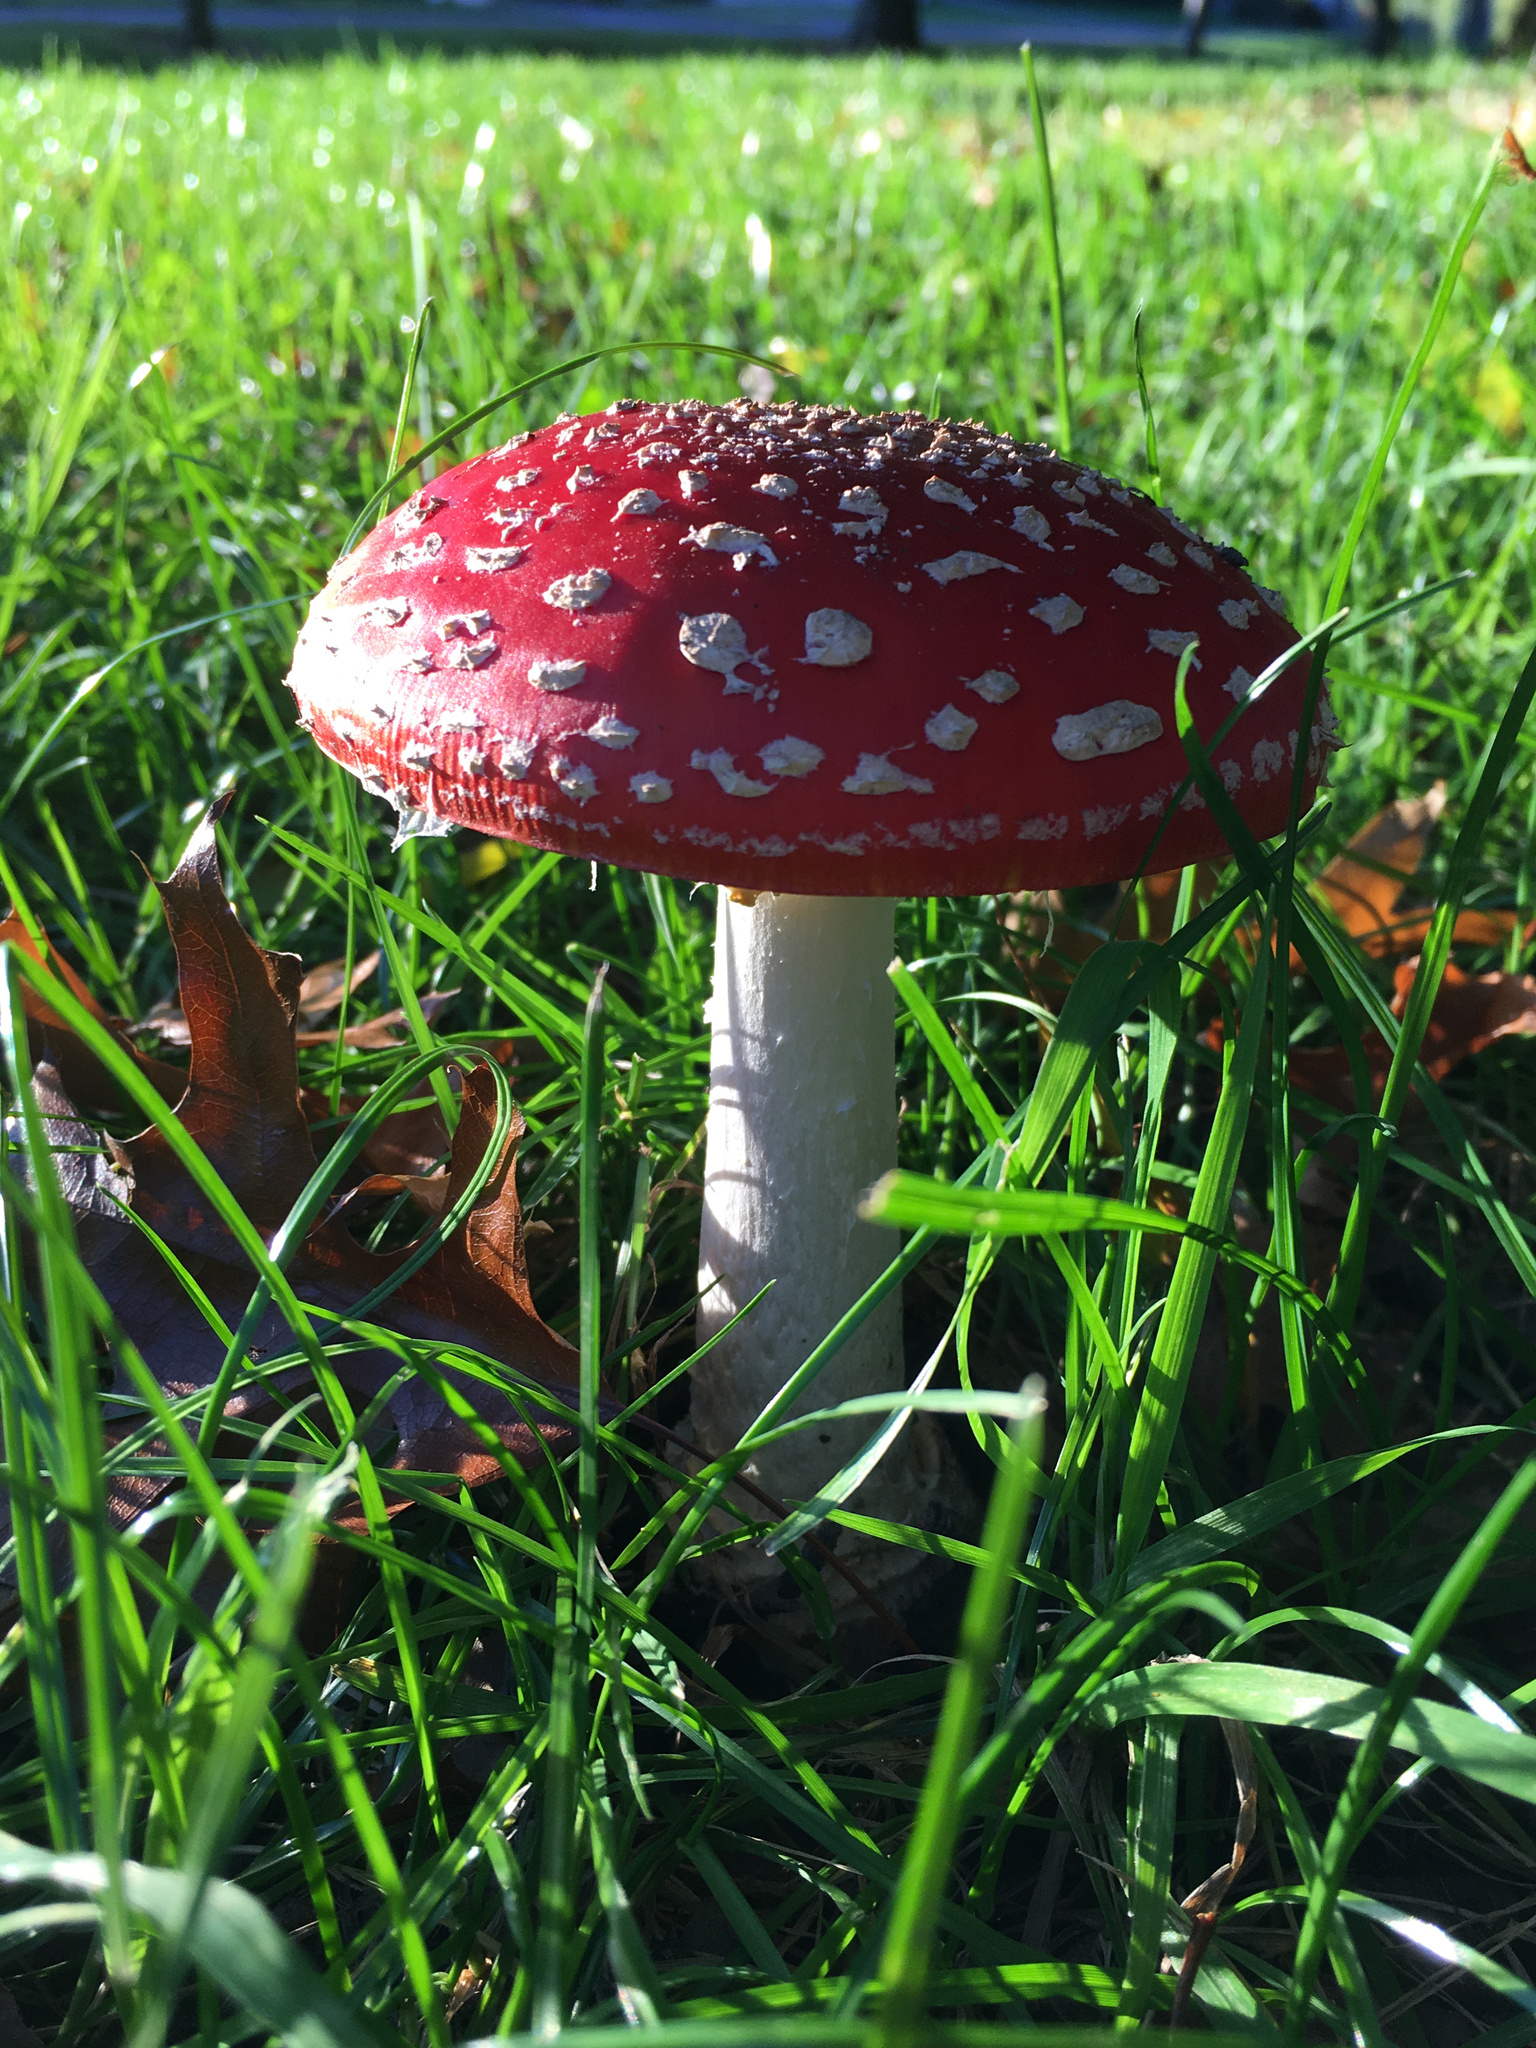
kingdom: Fungi
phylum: Basidiomycota
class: Agaricomycetes
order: Agaricales
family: Amanitaceae
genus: Amanita
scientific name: Amanita muscaria
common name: Fly agaric
